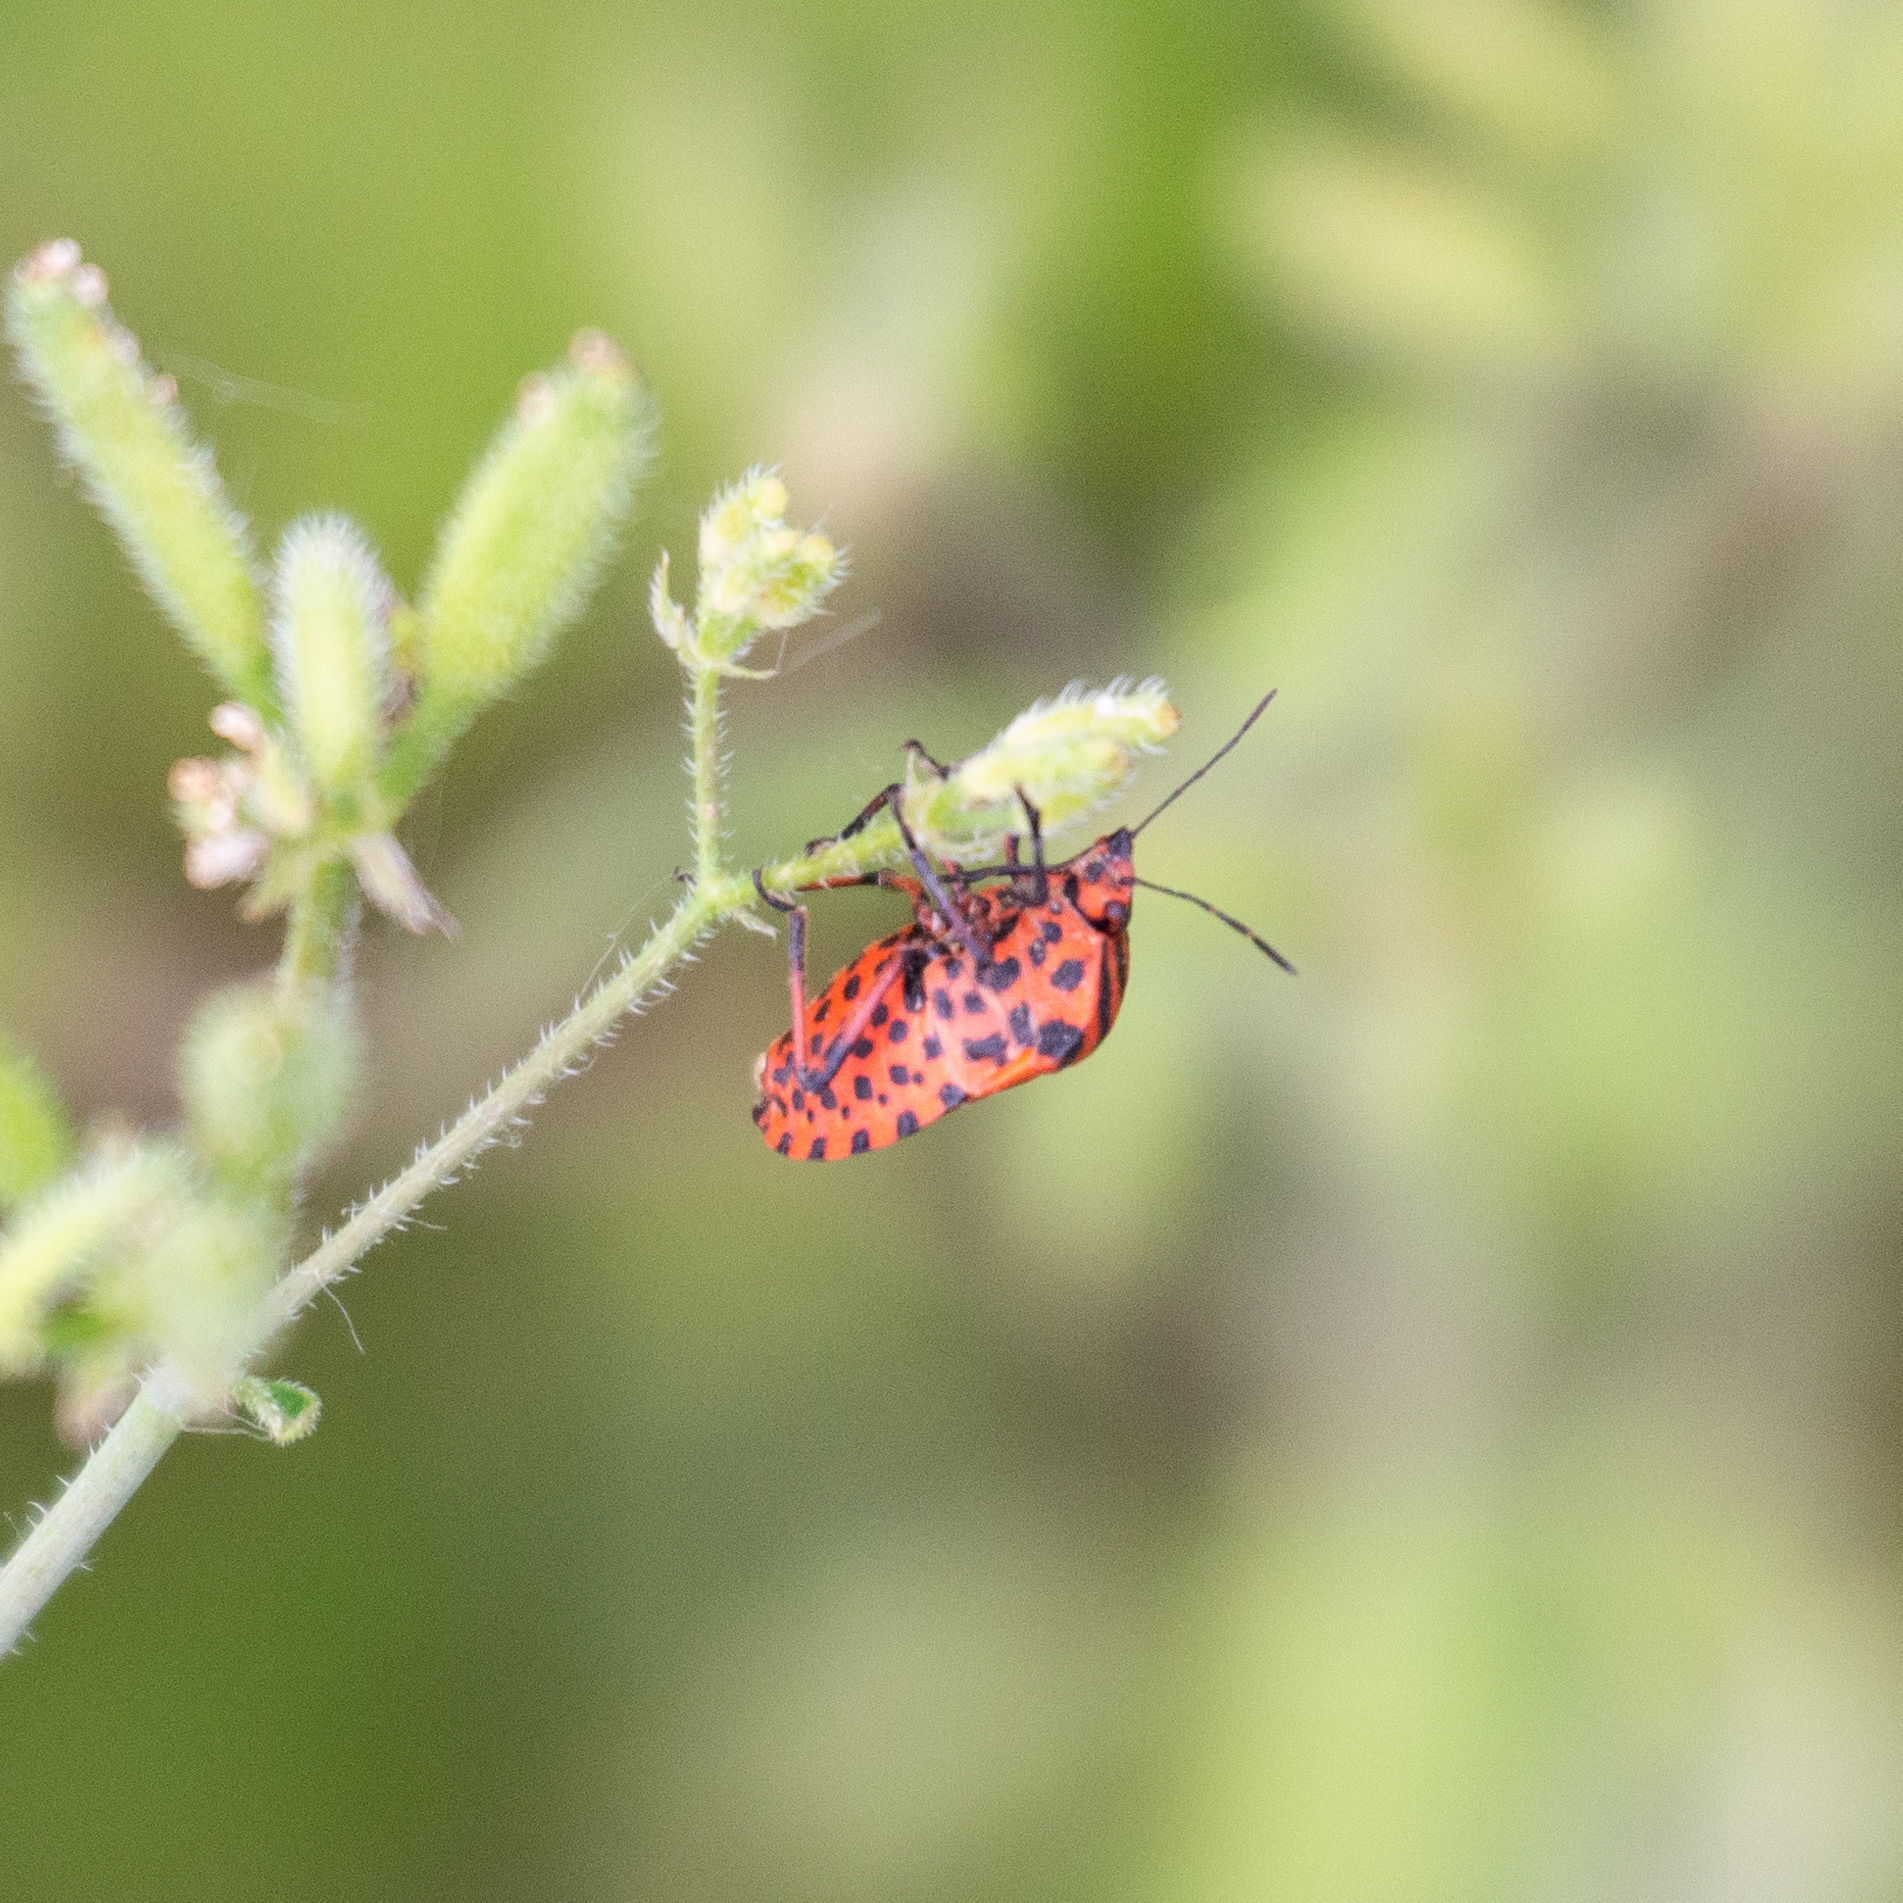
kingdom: Animalia
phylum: Arthropoda
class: Insecta
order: Hemiptera
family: Pentatomidae
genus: Graphosoma
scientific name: Graphosoma italicum
